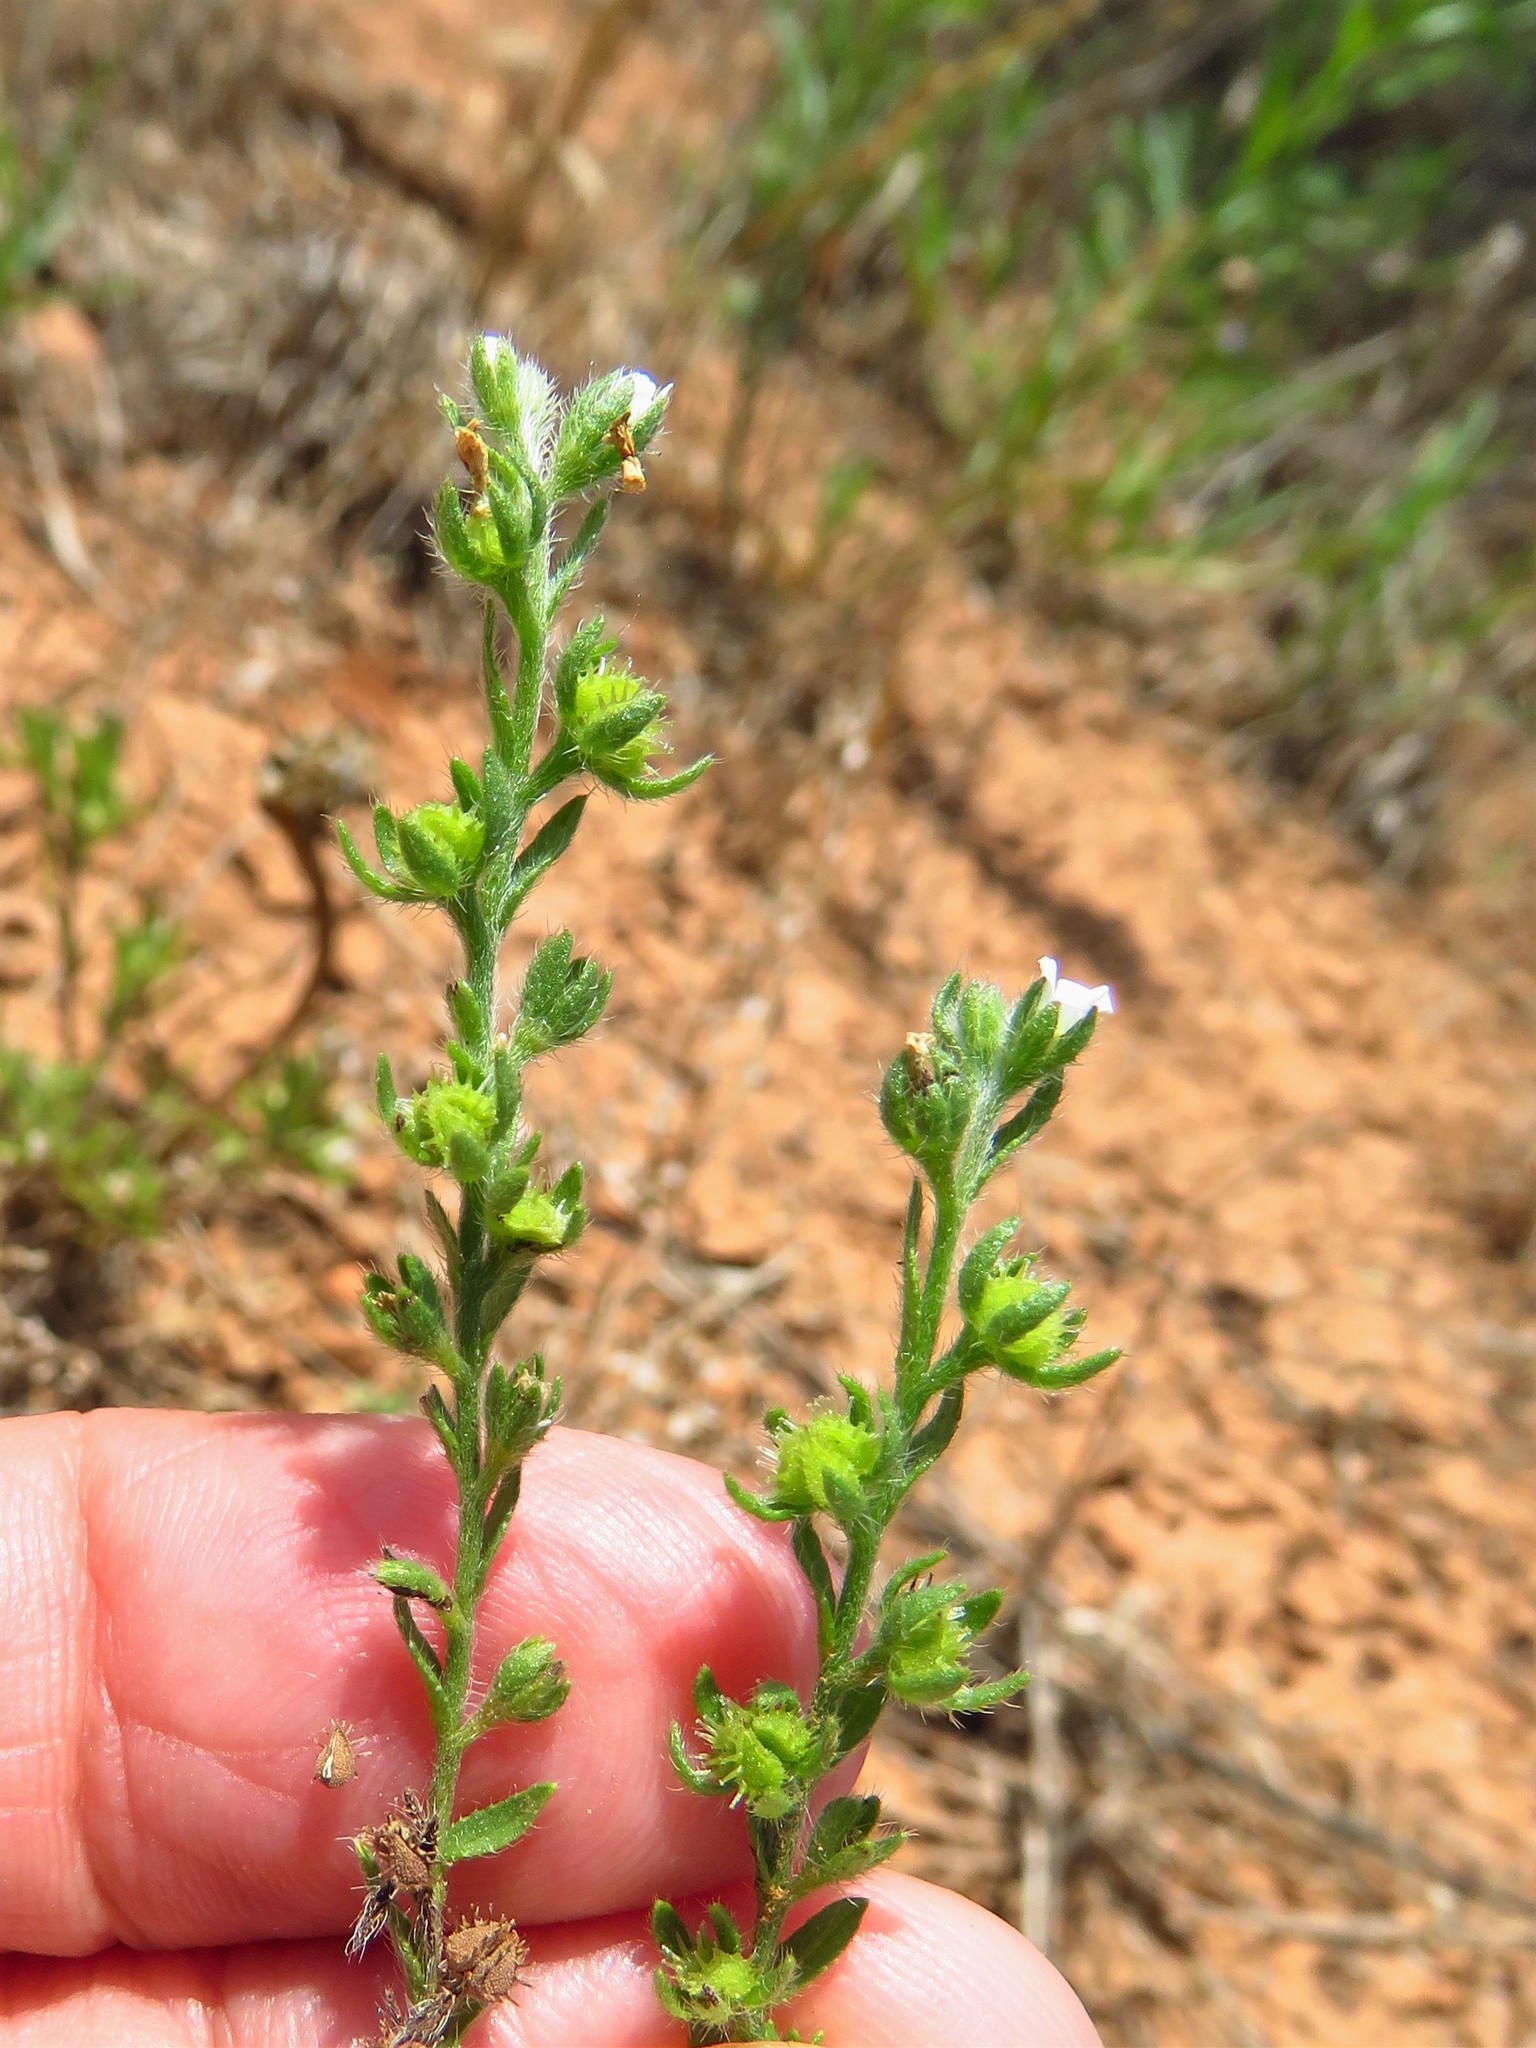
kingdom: Plantae
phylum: Tracheophyta
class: Magnoliopsida
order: Boraginales
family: Boraginaceae
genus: Lappula
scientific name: Lappula occidentalis
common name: Western stickseed
